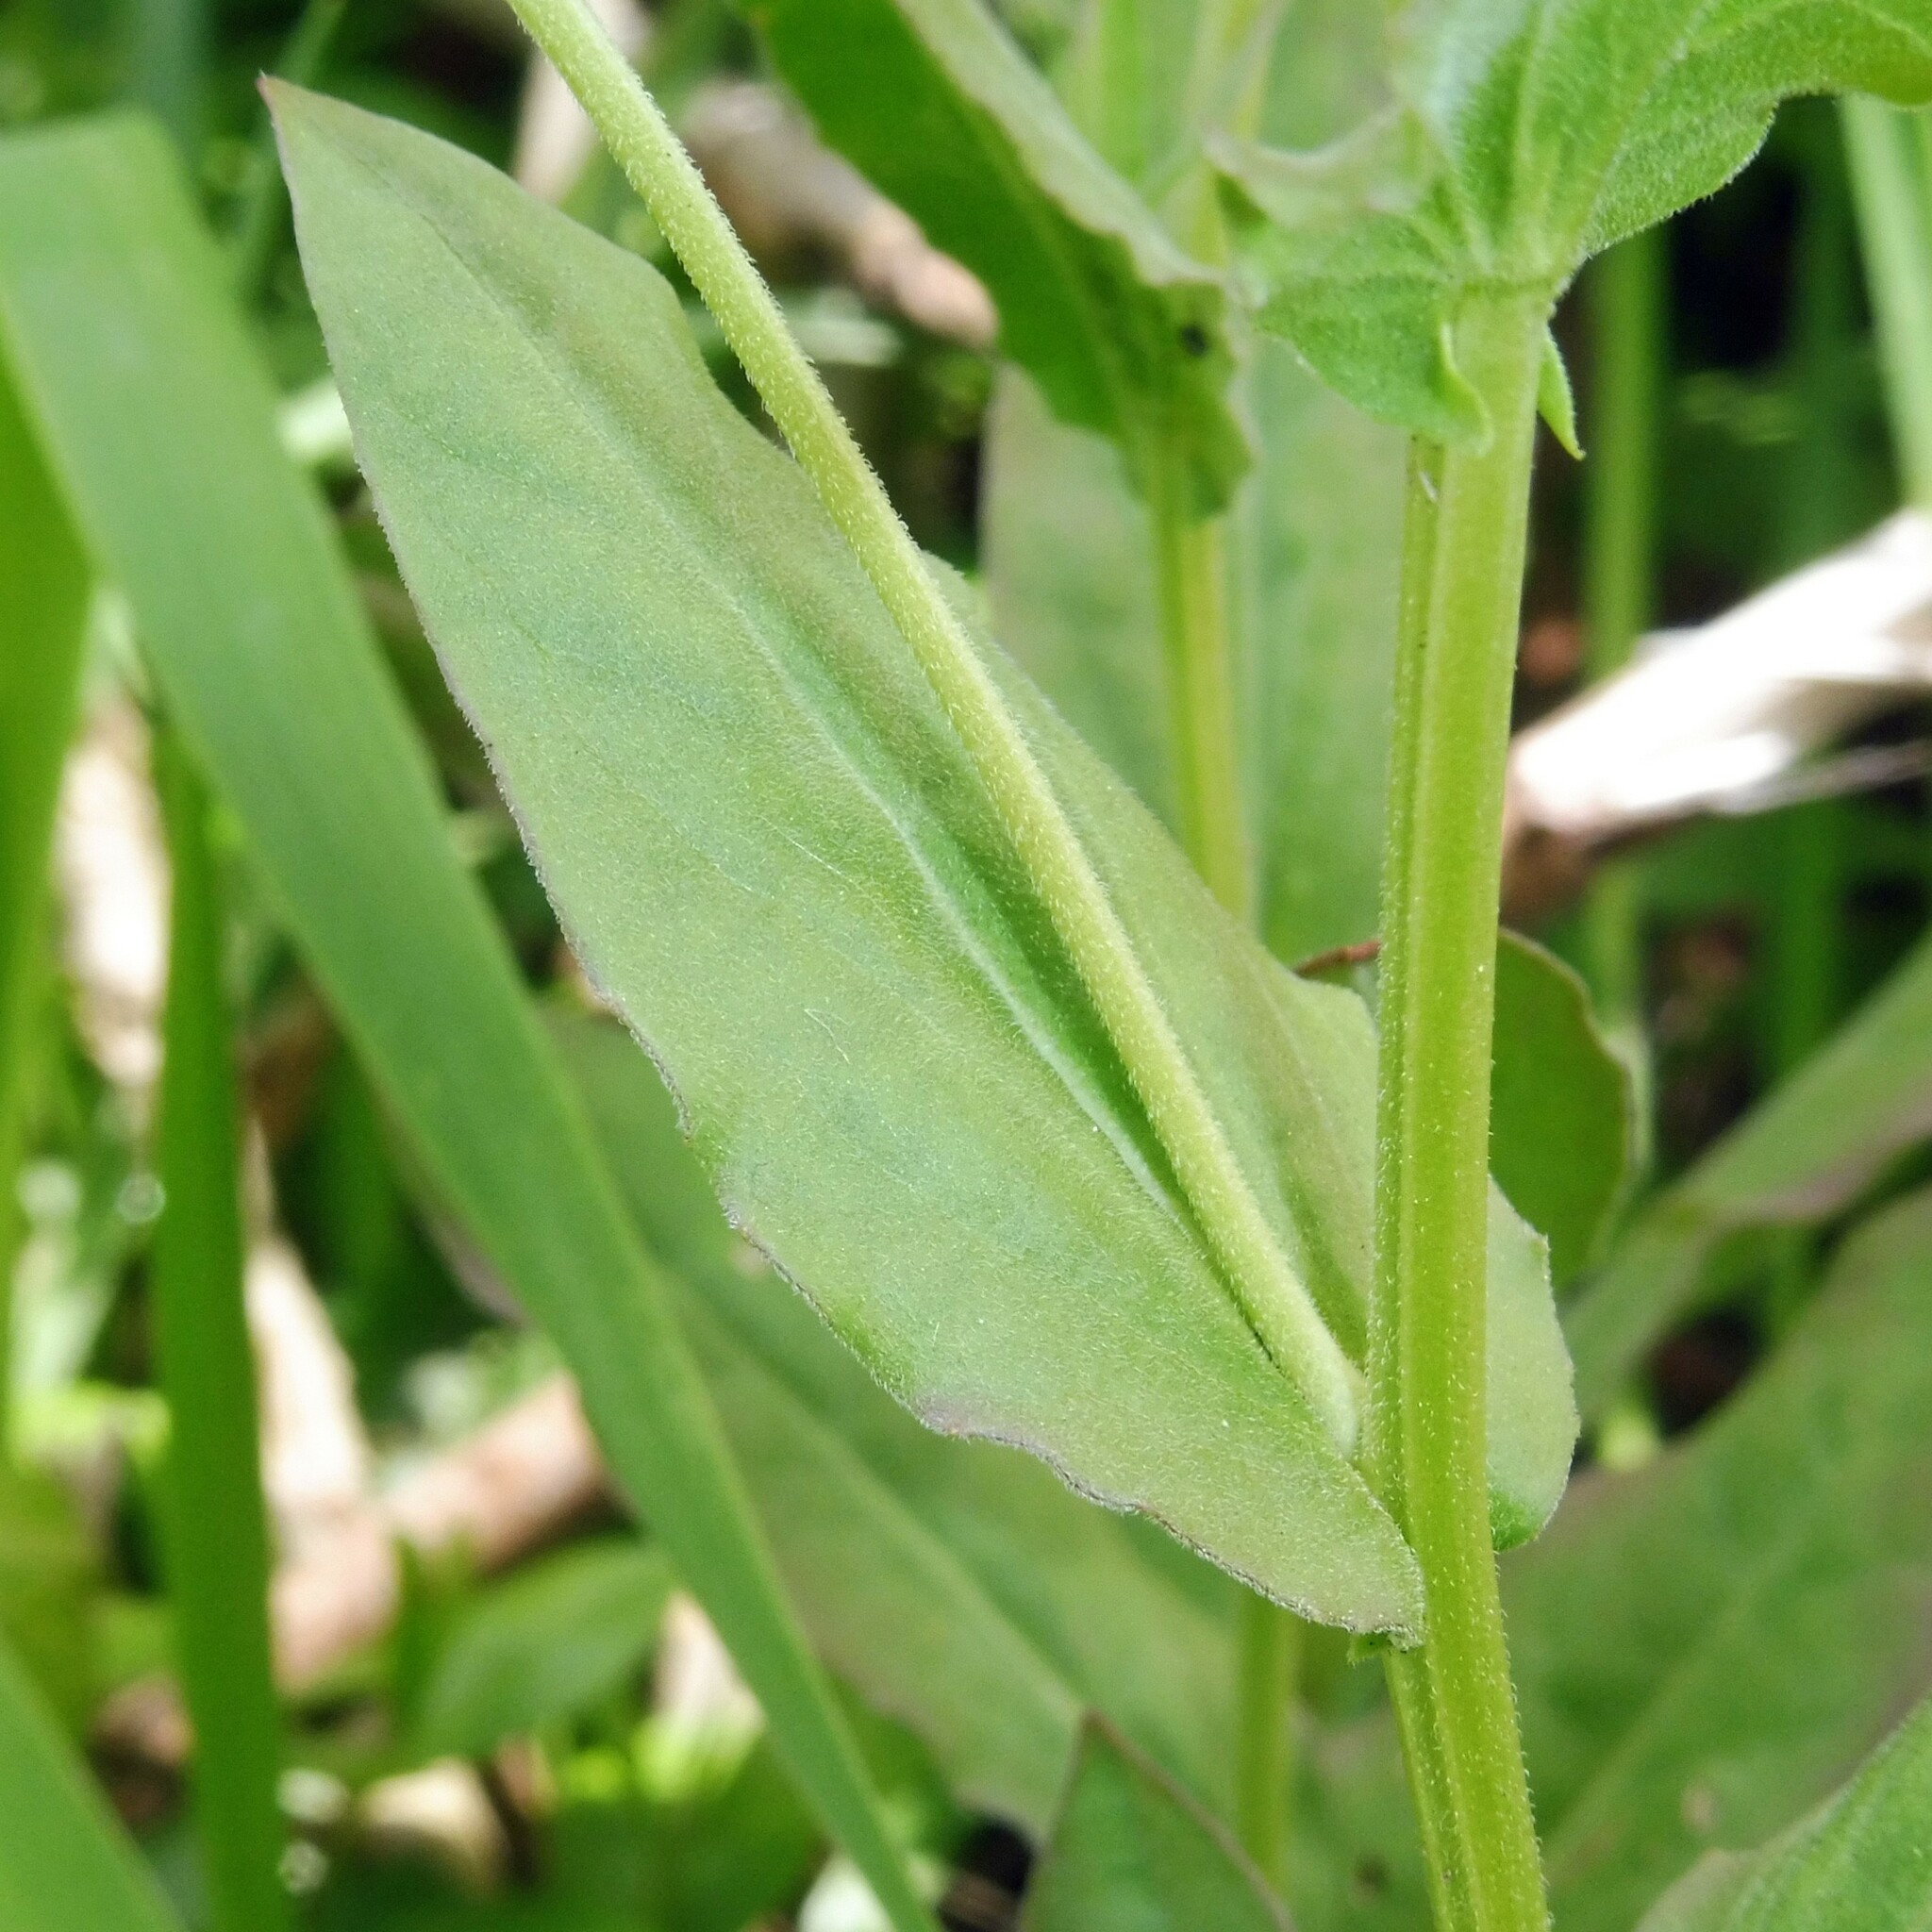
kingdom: Plantae
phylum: Tracheophyta
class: Magnoliopsida
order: Brassicales
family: Brassicaceae
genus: Lepidium
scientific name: Lepidium draba
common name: Hoary cress
